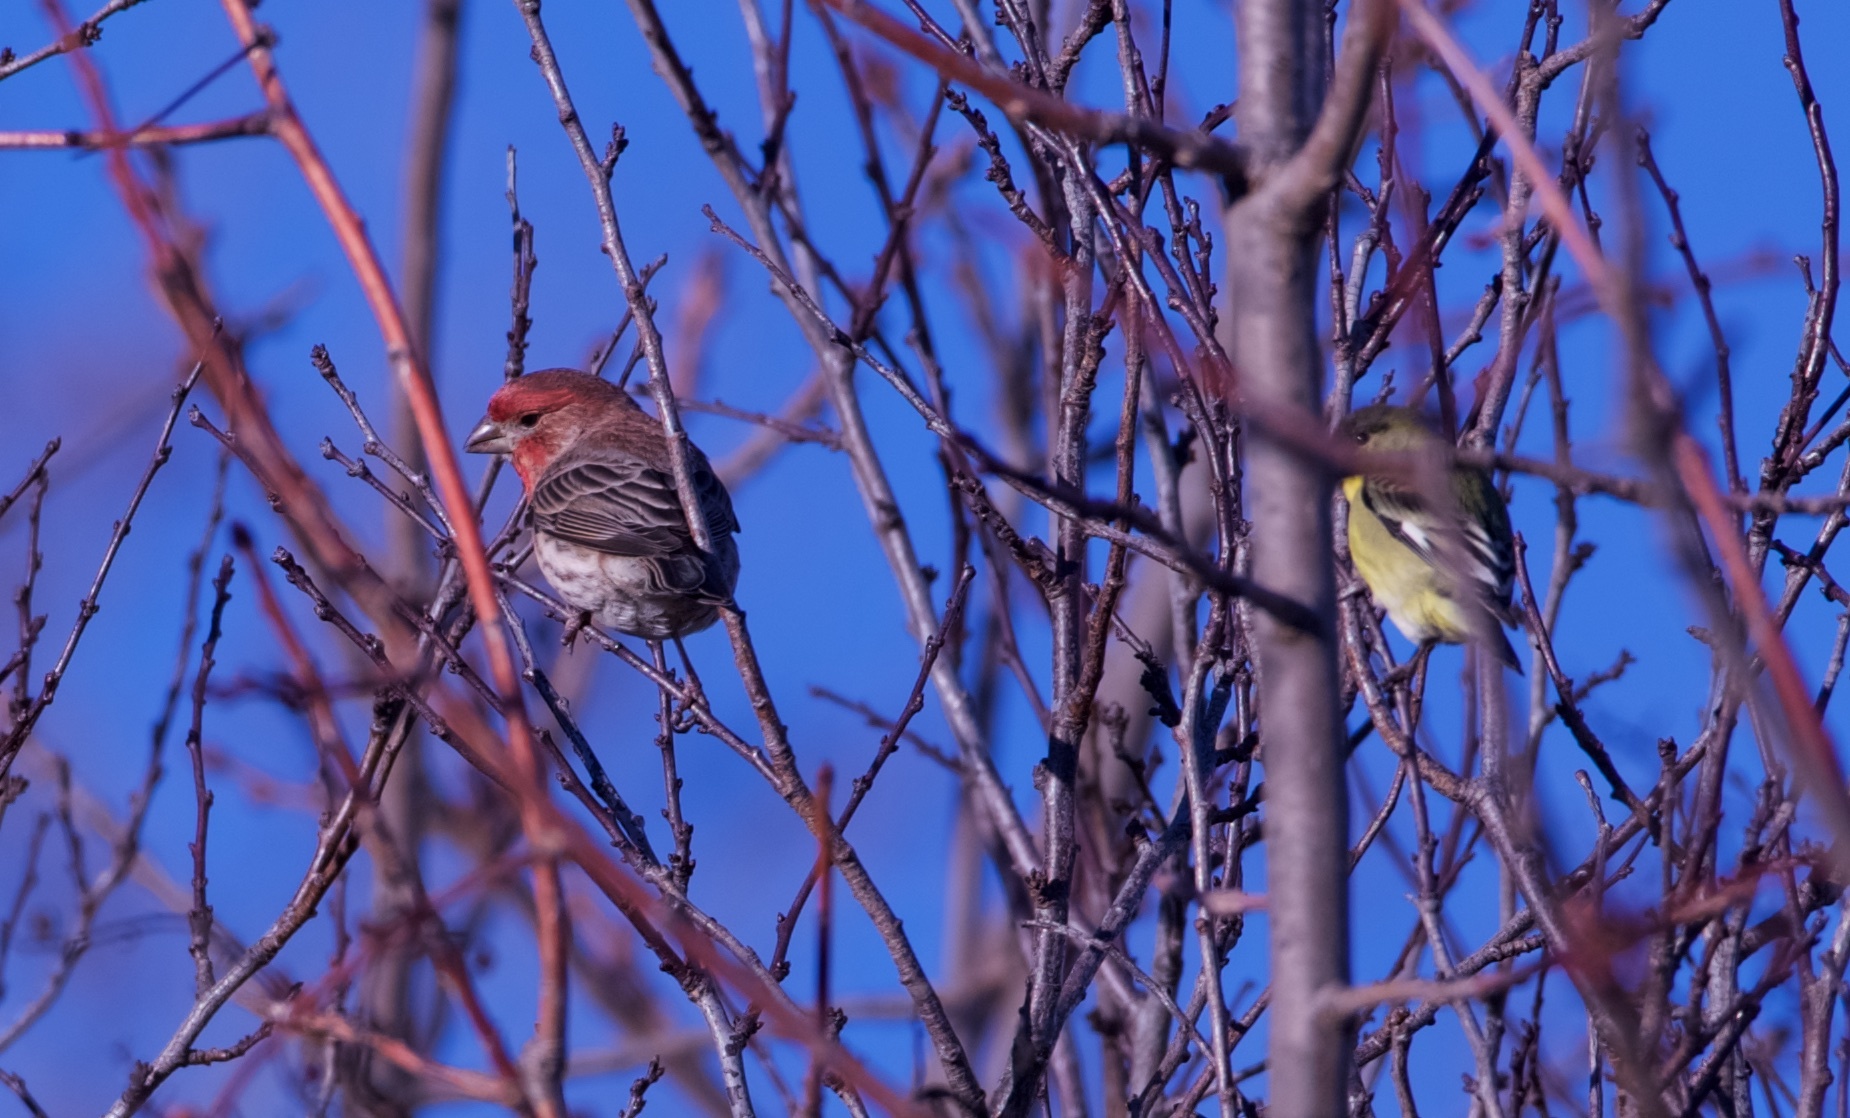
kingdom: Animalia
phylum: Chordata
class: Aves
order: Passeriformes
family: Fringillidae
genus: Haemorhous
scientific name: Haemorhous mexicanus
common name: House finch
